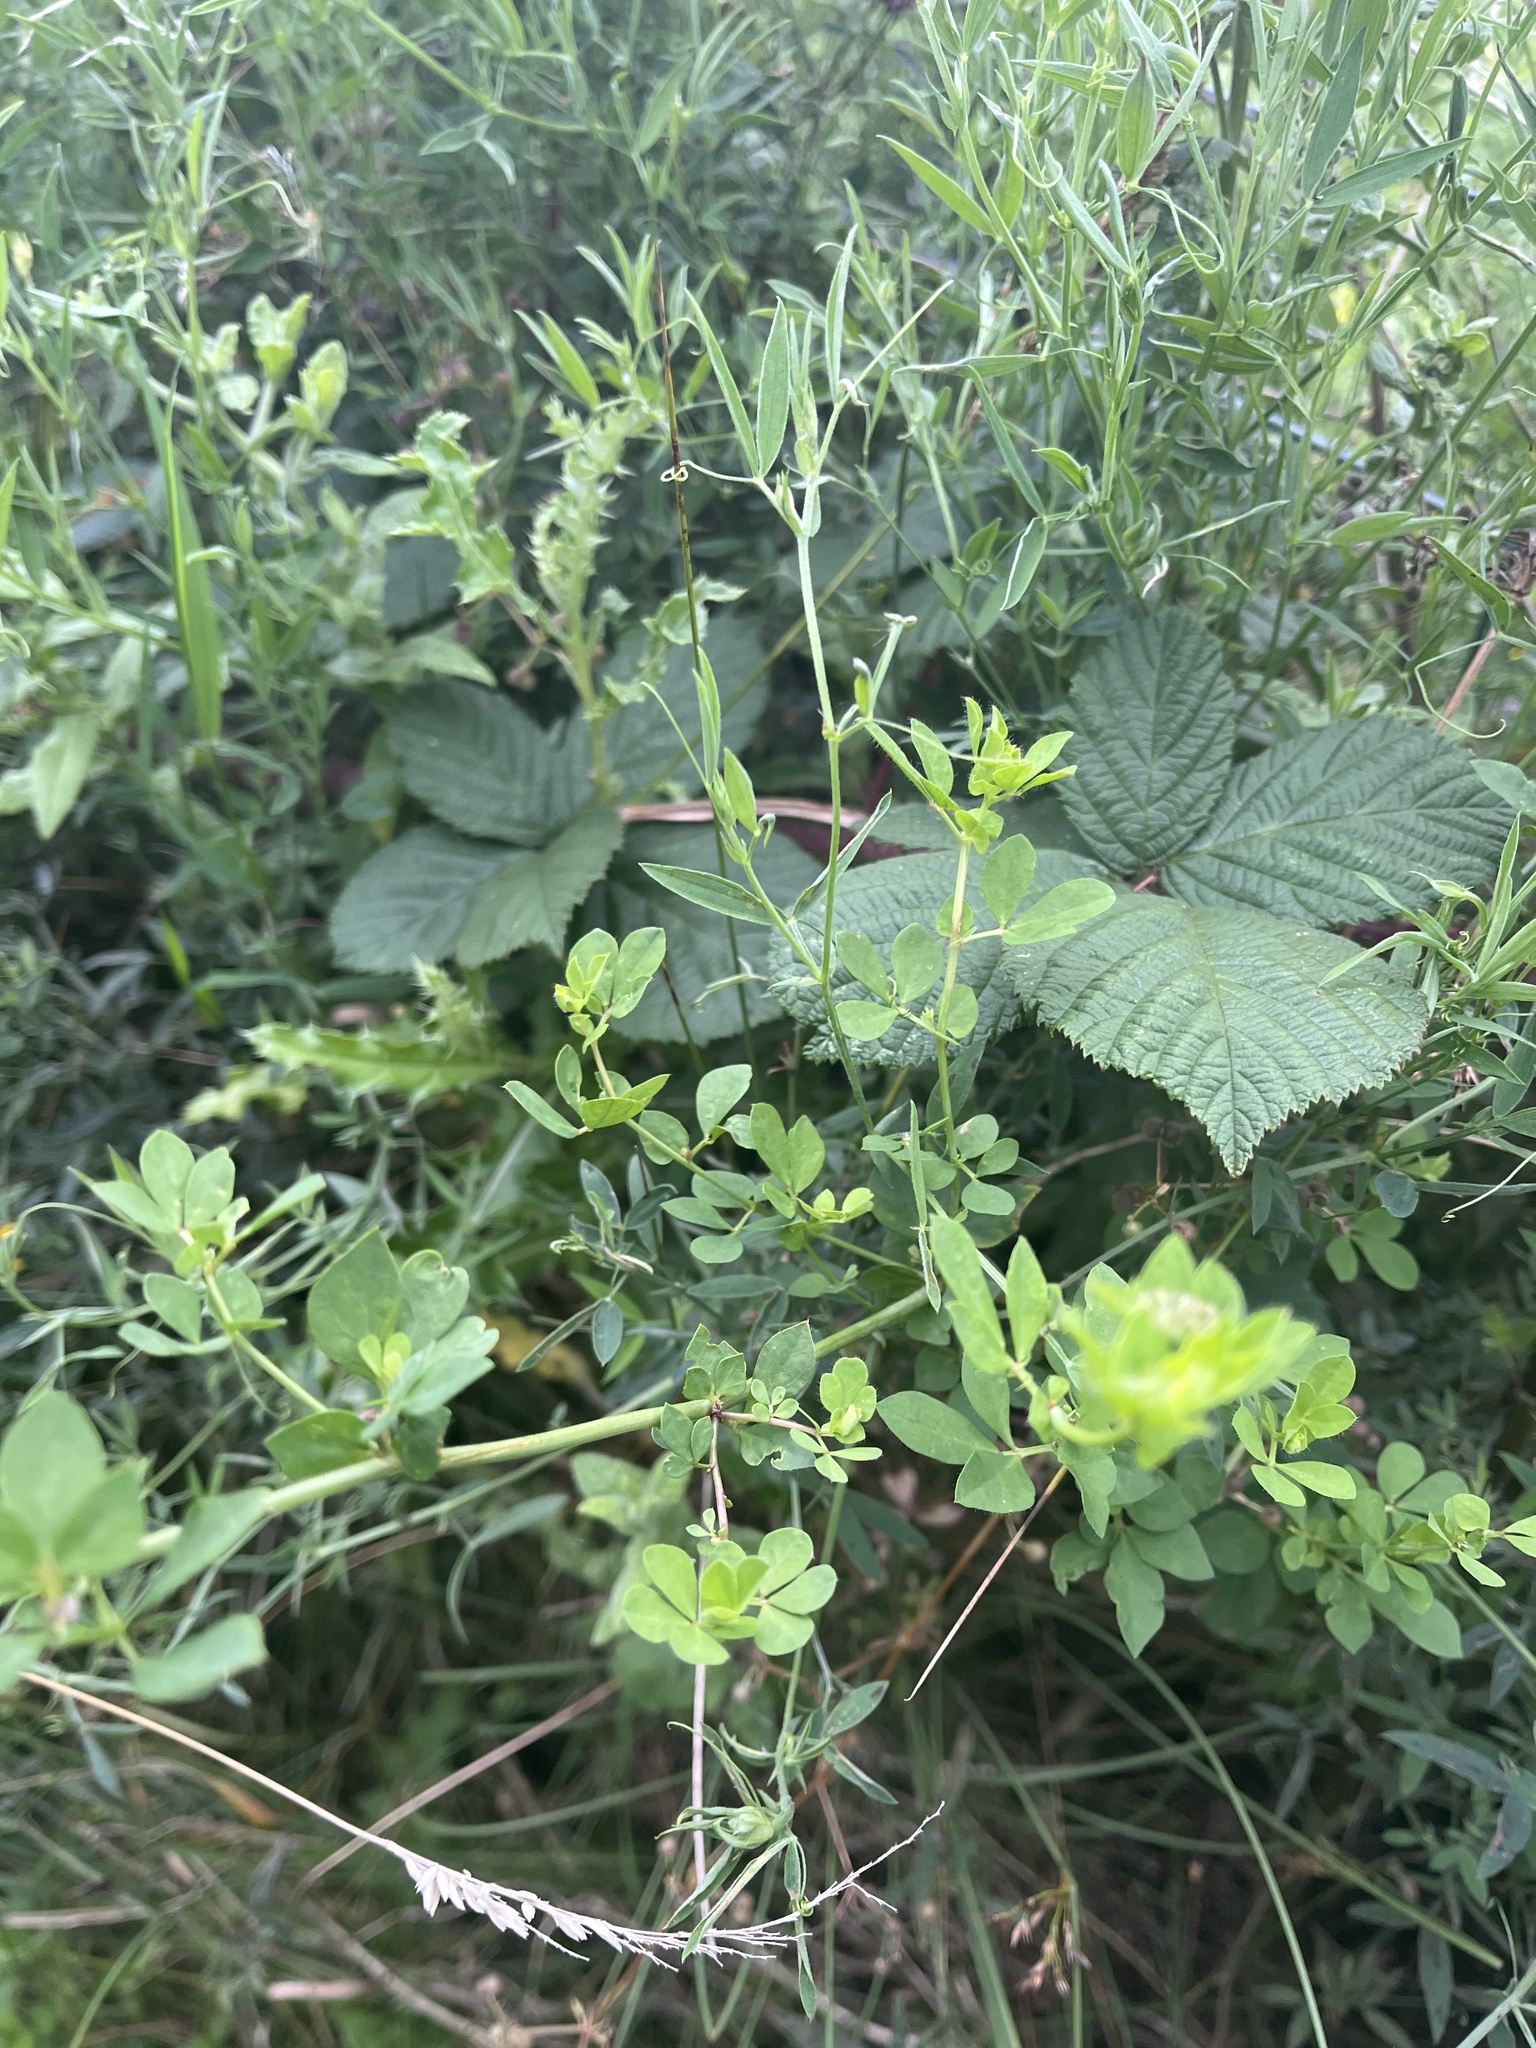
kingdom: Plantae
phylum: Tracheophyta
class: Magnoliopsida
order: Fabales
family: Fabaceae
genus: Lotus
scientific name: Lotus pedunculatus
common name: Greater birdsfoot-trefoil
